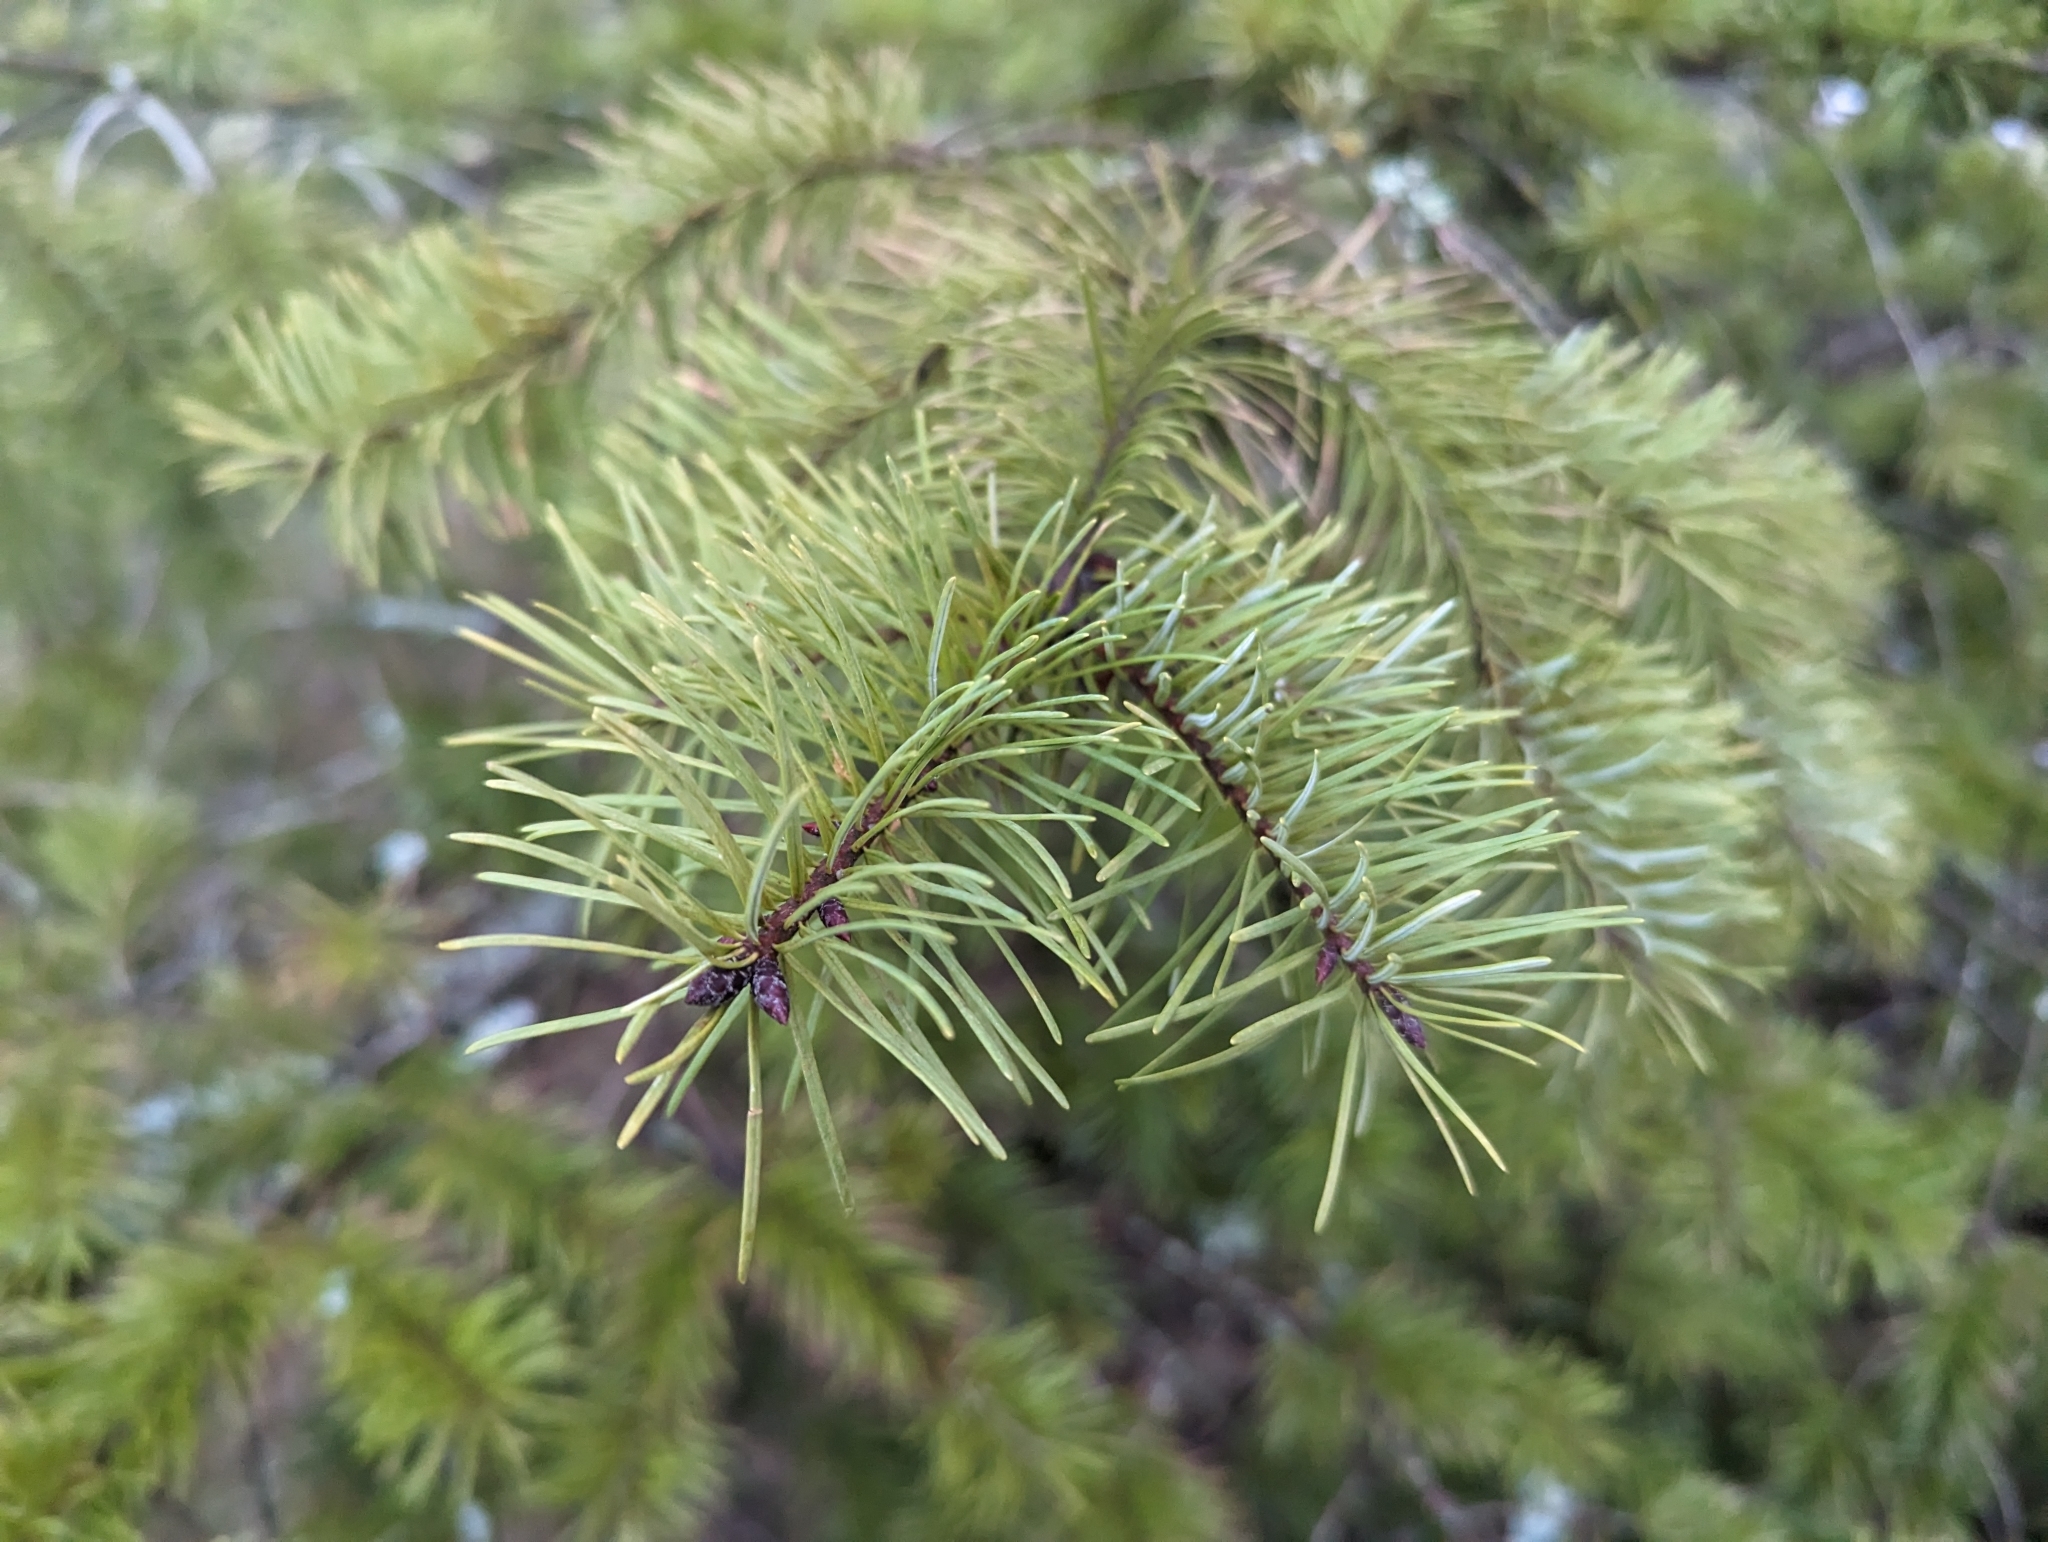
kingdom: Plantae
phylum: Tracheophyta
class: Pinopsida
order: Pinales
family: Pinaceae
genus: Pseudotsuga
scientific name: Pseudotsuga menziesii
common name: Douglas fir
